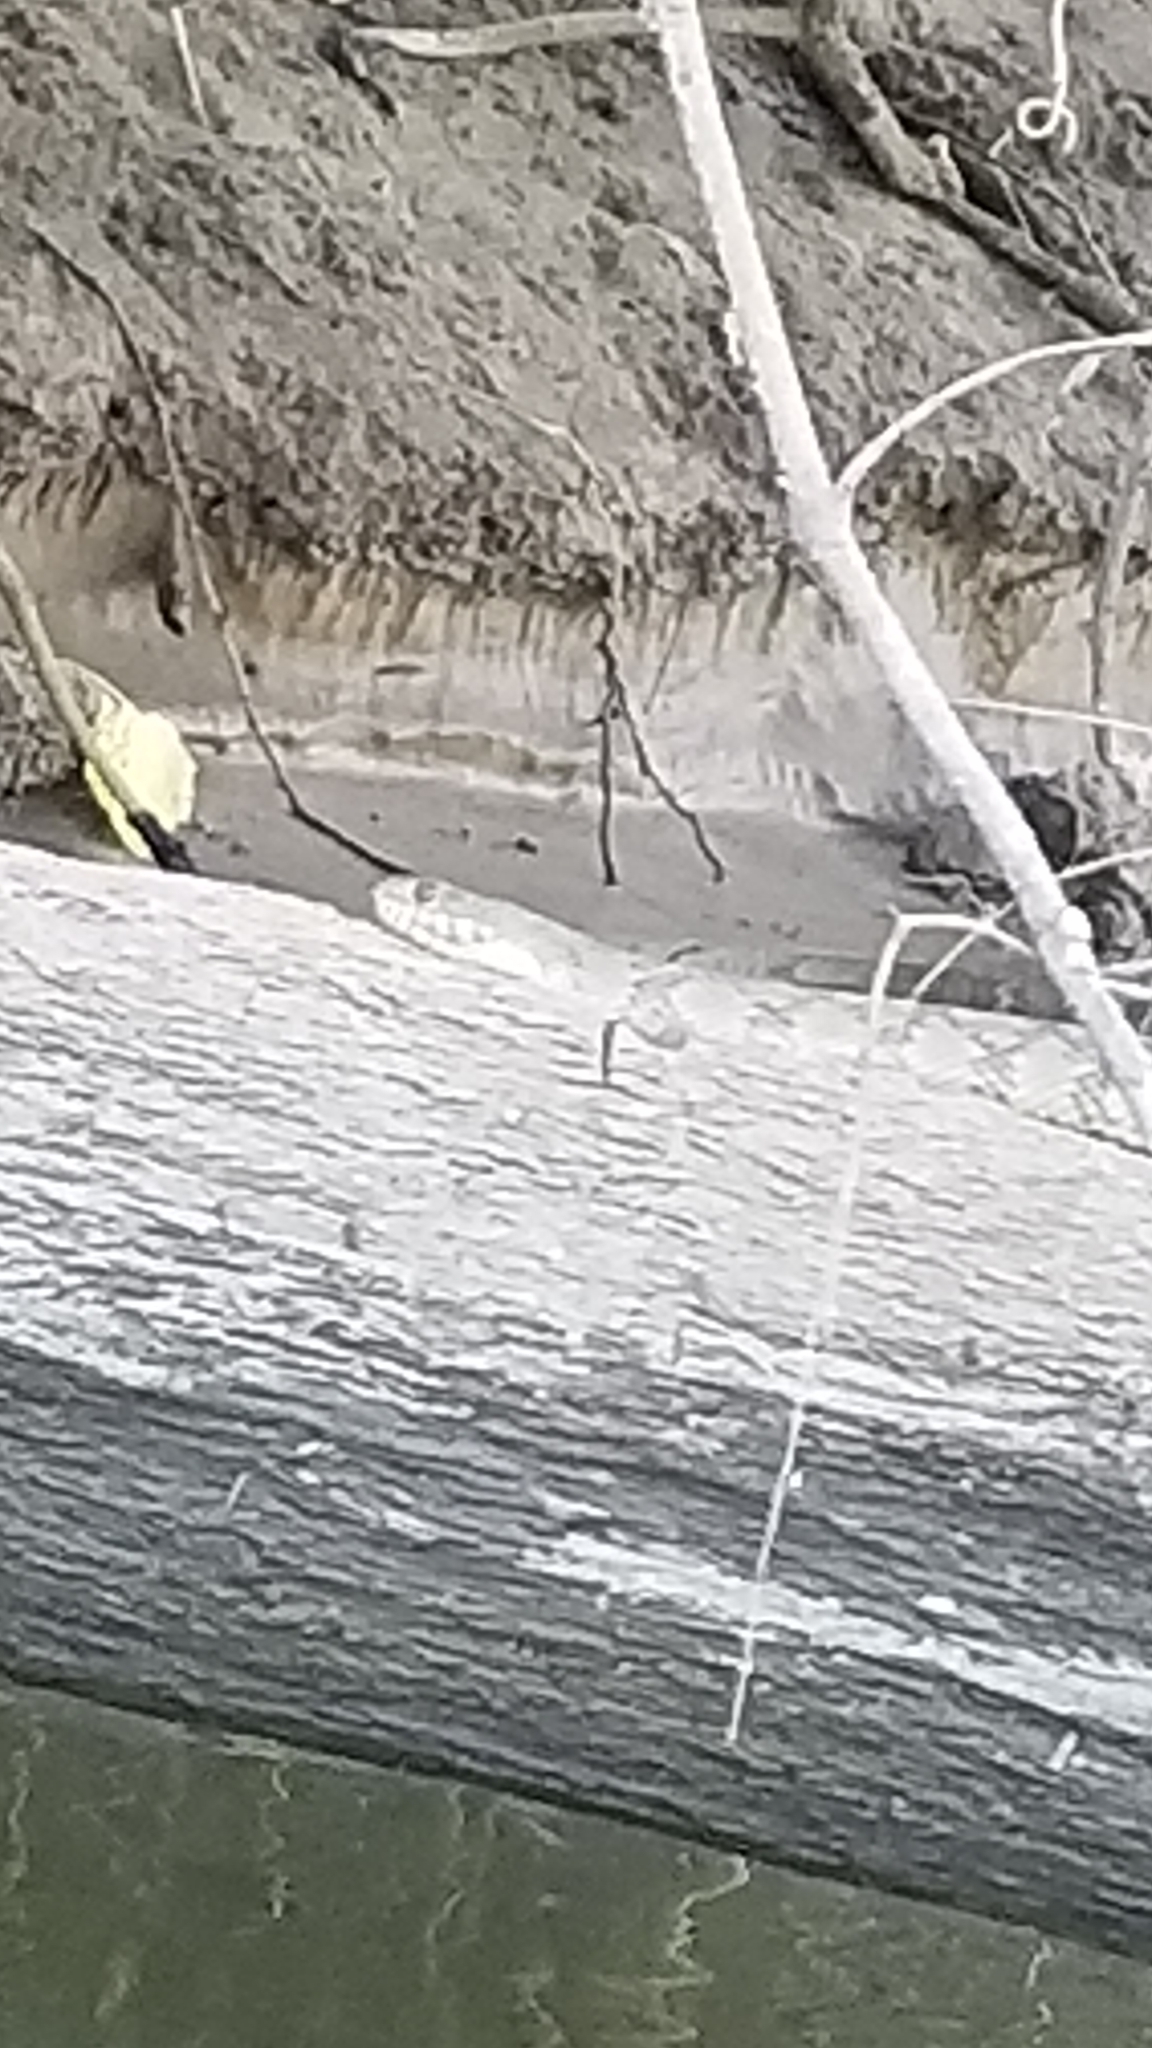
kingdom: Animalia
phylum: Chordata
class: Squamata
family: Colubridae
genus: Nerodia
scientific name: Nerodia rhombifer
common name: Diamondback water snake
